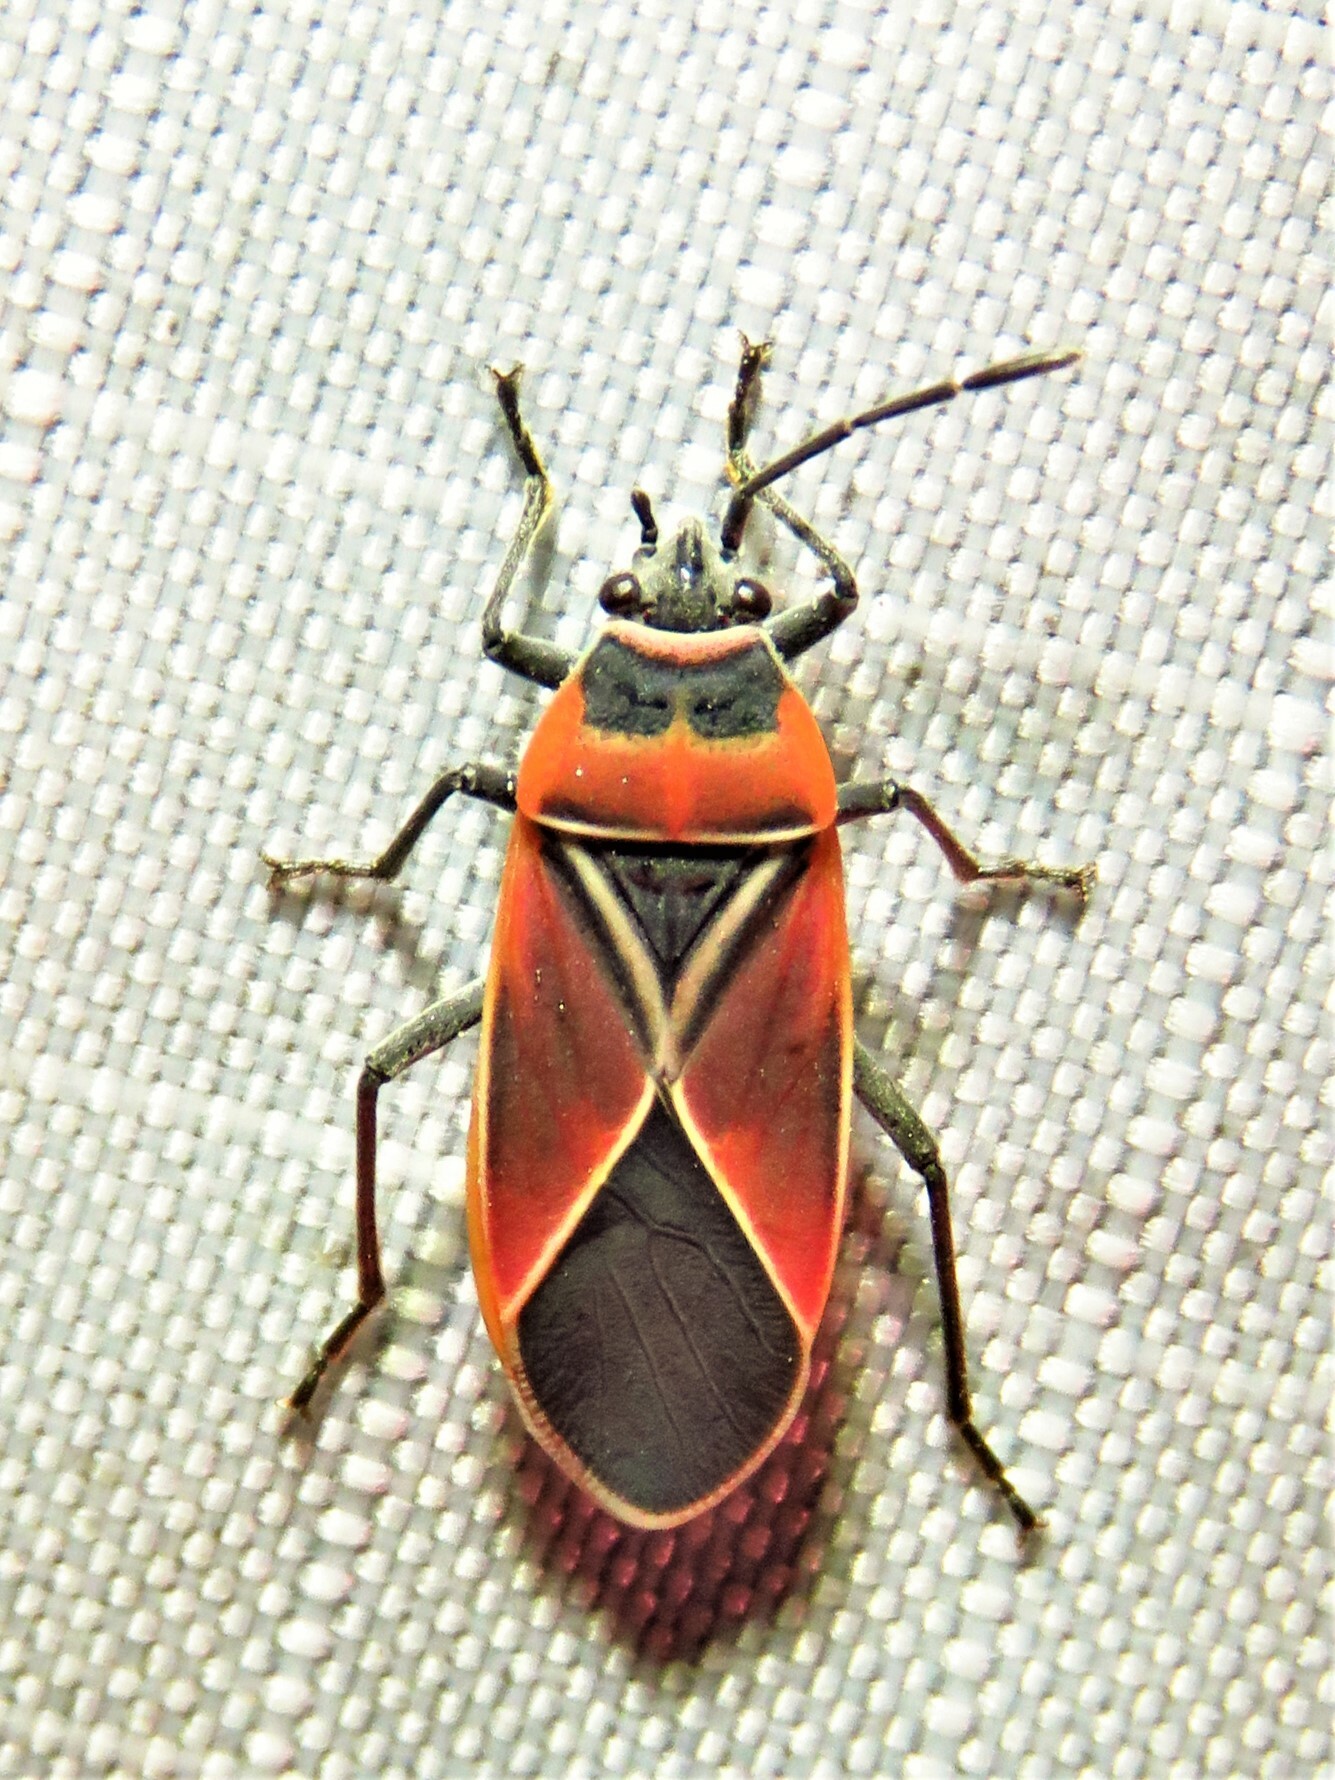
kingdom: Animalia
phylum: Arthropoda
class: Insecta
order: Hemiptera
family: Lygaeidae
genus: Neacoryphus
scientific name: Neacoryphus bicrucis
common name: Lygaeid bug
